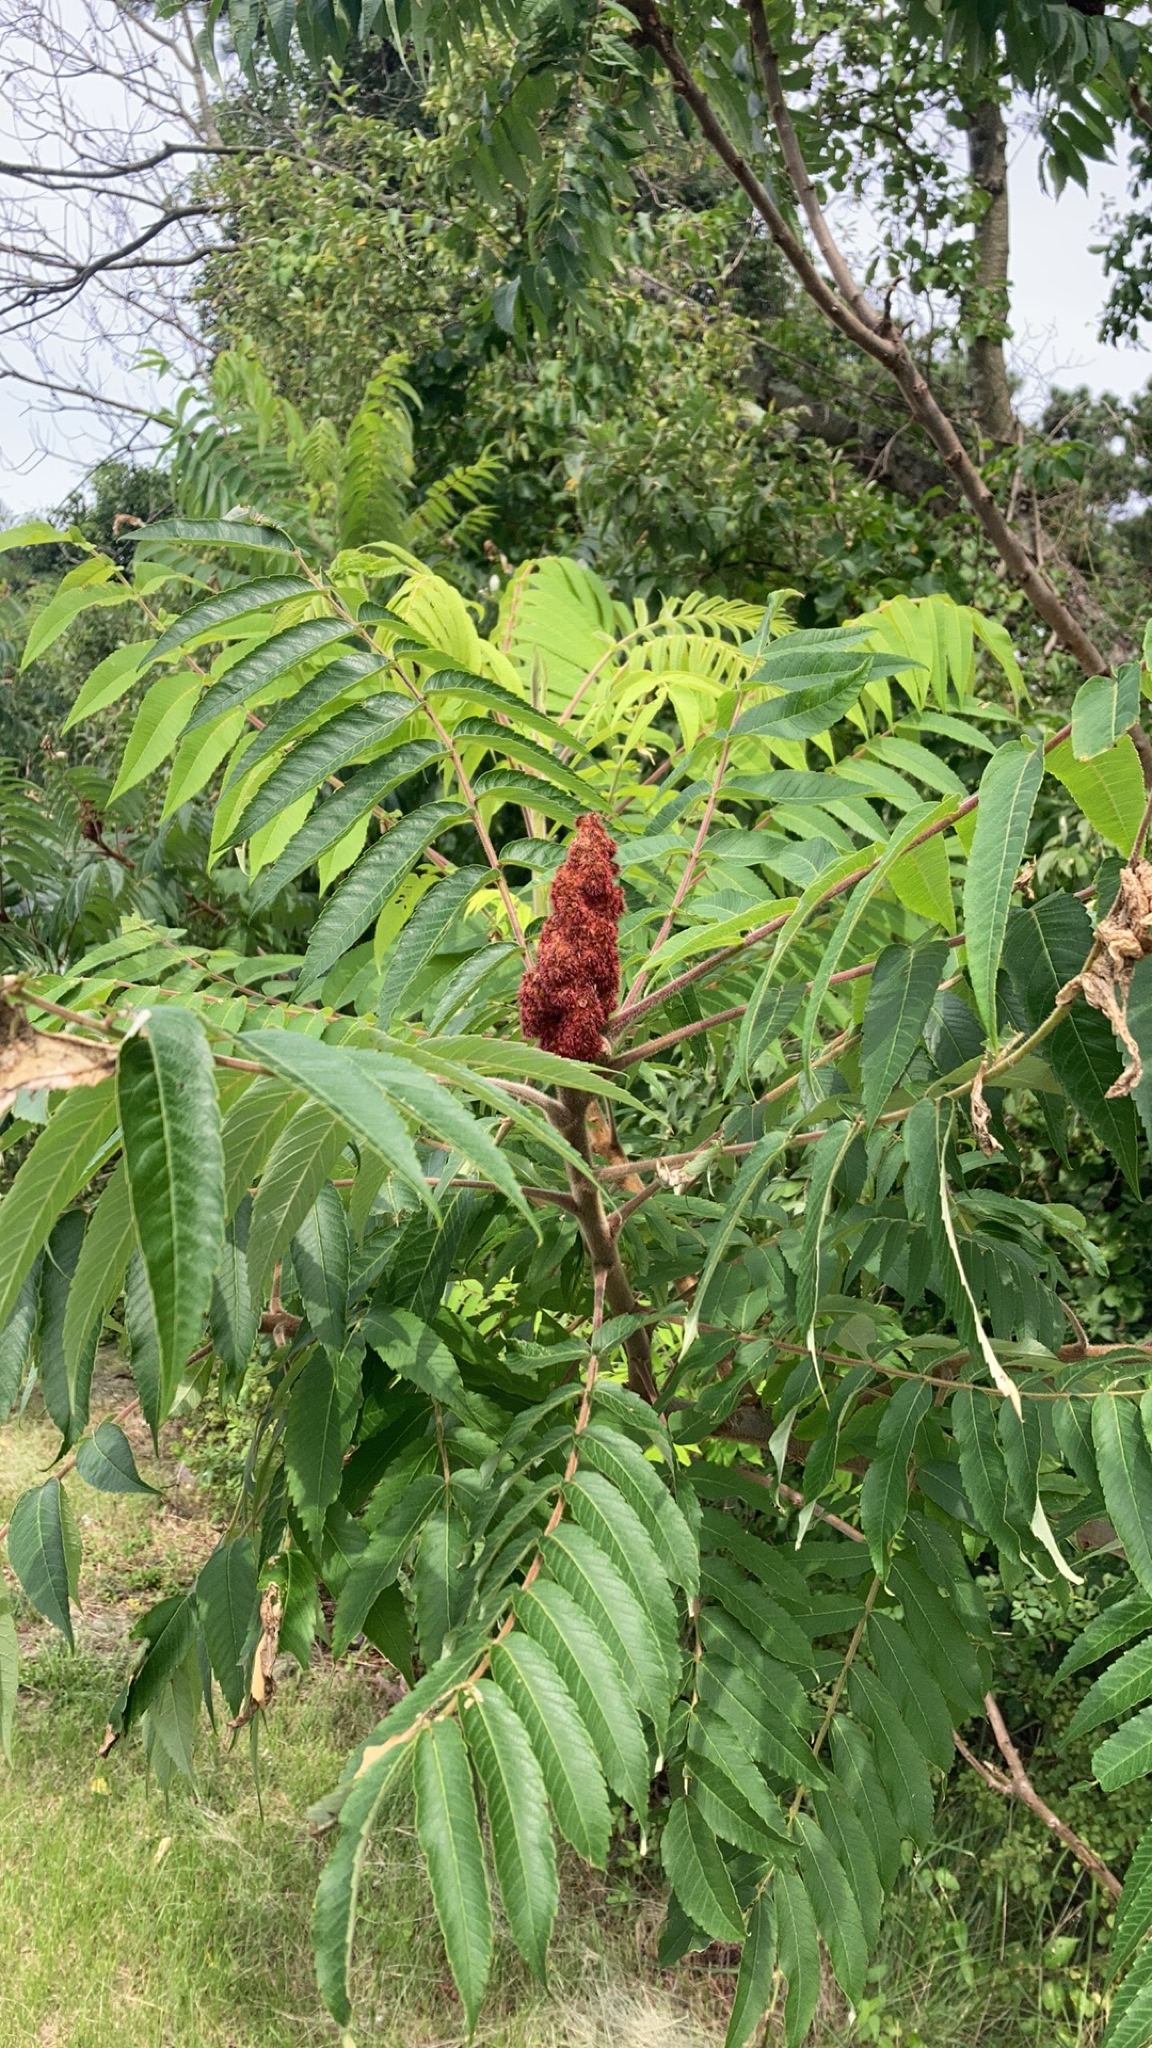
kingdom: Plantae
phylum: Tracheophyta
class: Magnoliopsida
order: Sapindales
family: Anacardiaceae
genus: Rhus
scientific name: Rhus typhina
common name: Staghorn sumac
